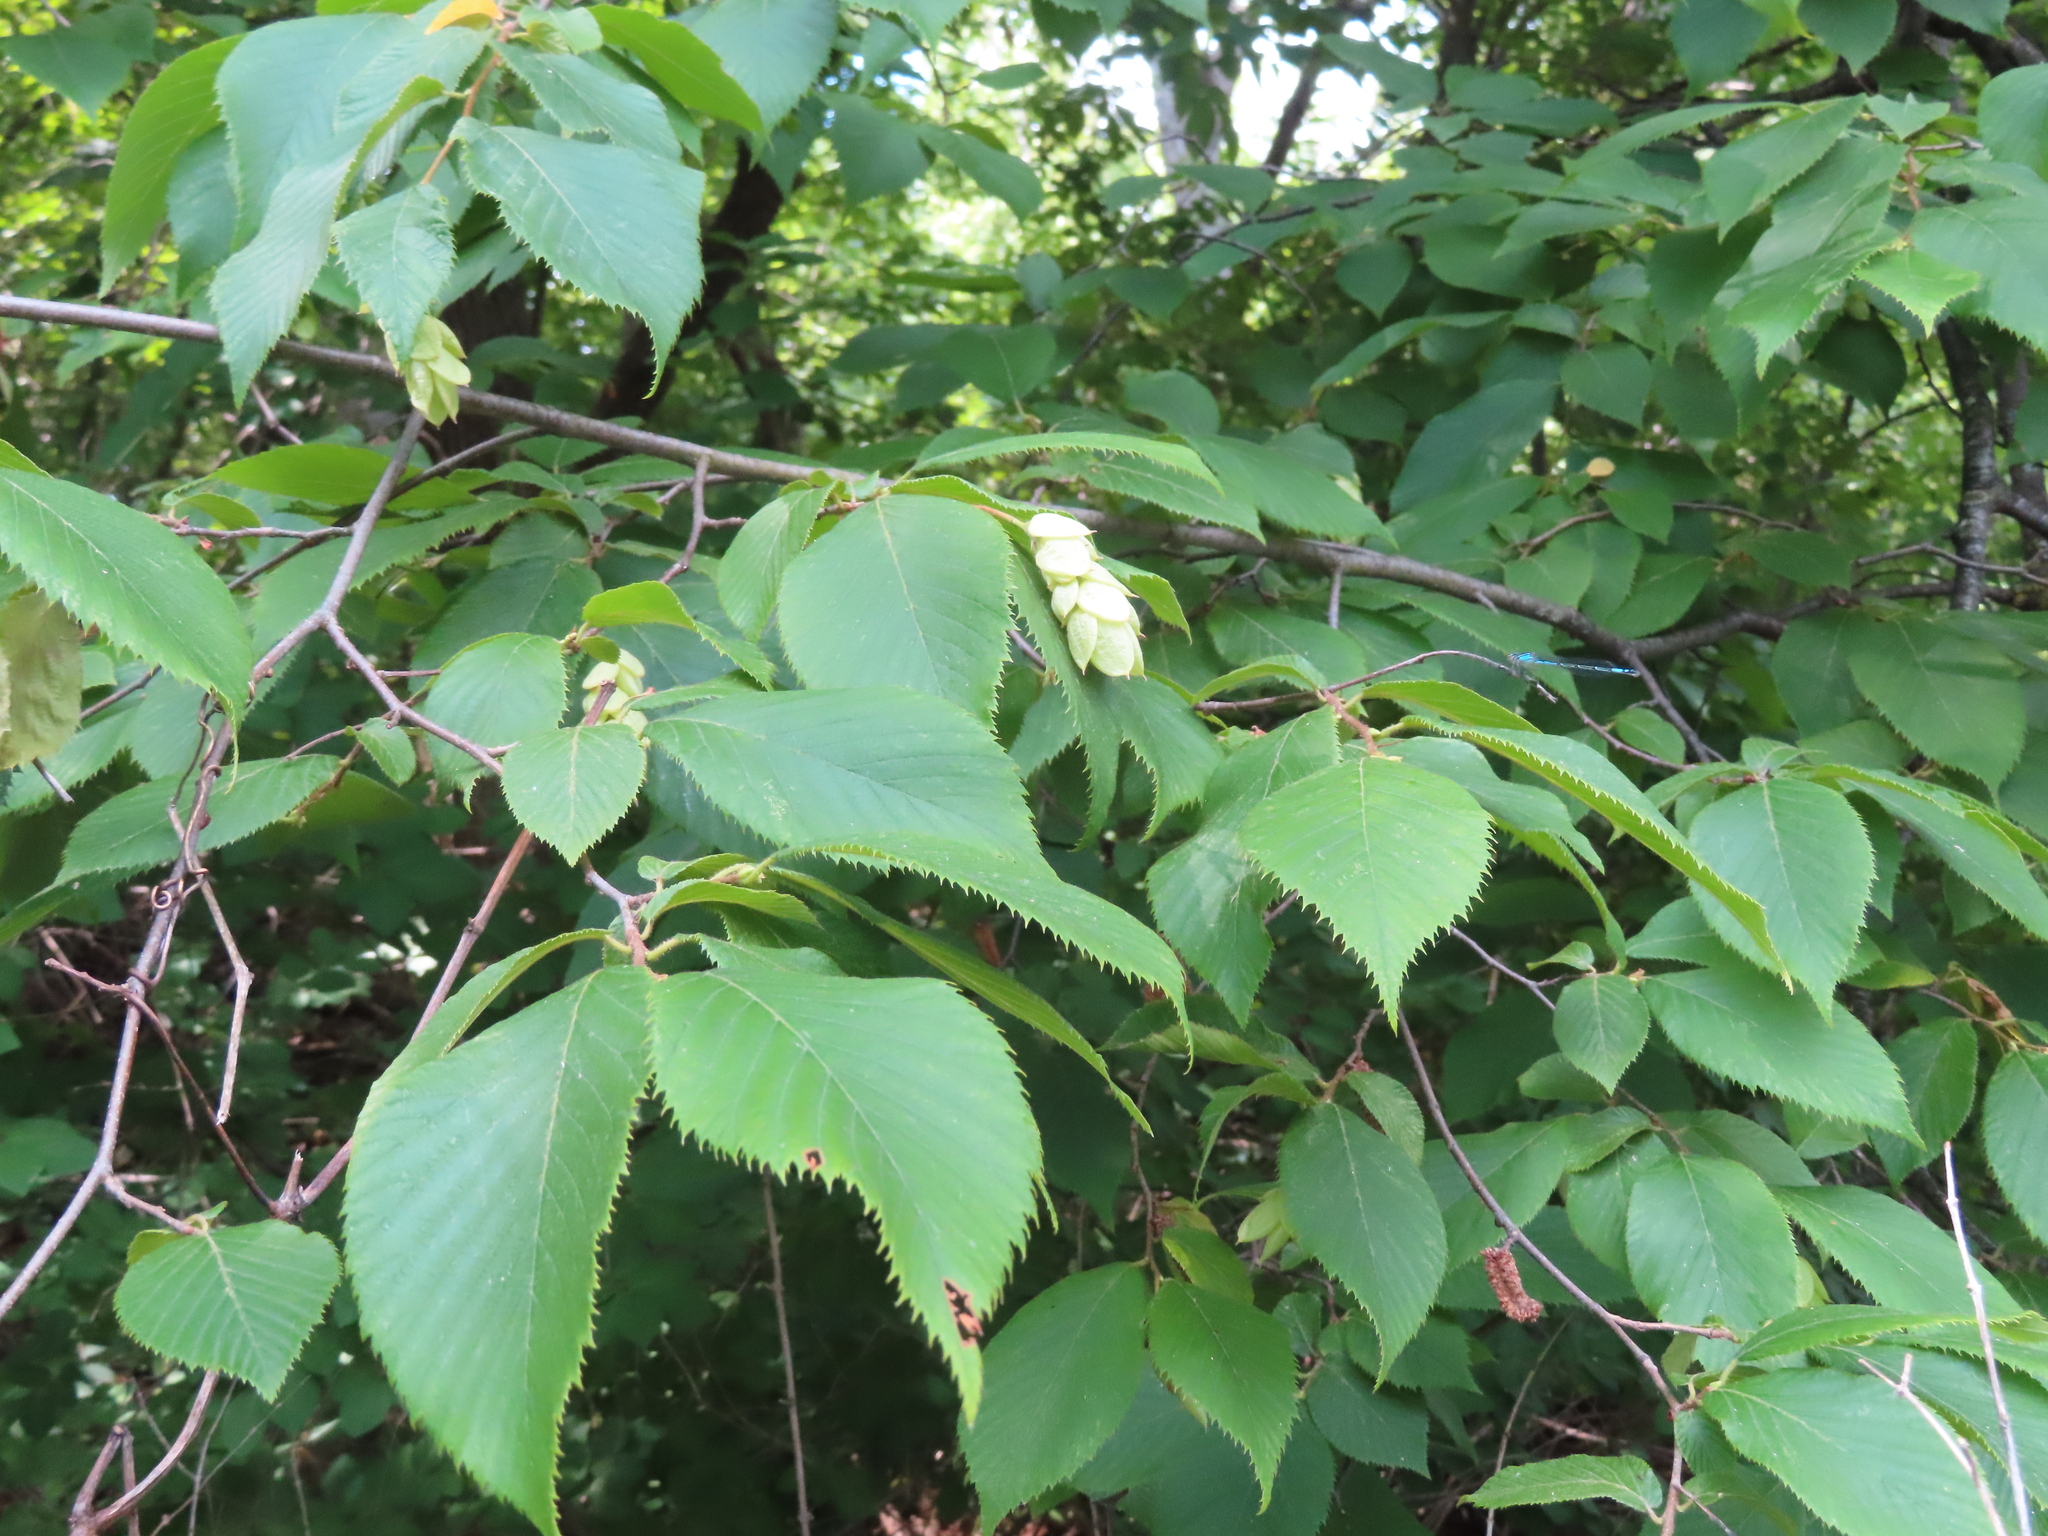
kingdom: Plantae
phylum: Tracheophyta
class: Magnoliopsida
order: Fagales
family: Betulaceae
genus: Ostrya
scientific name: Ostrya virginiana
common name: Ironwood
